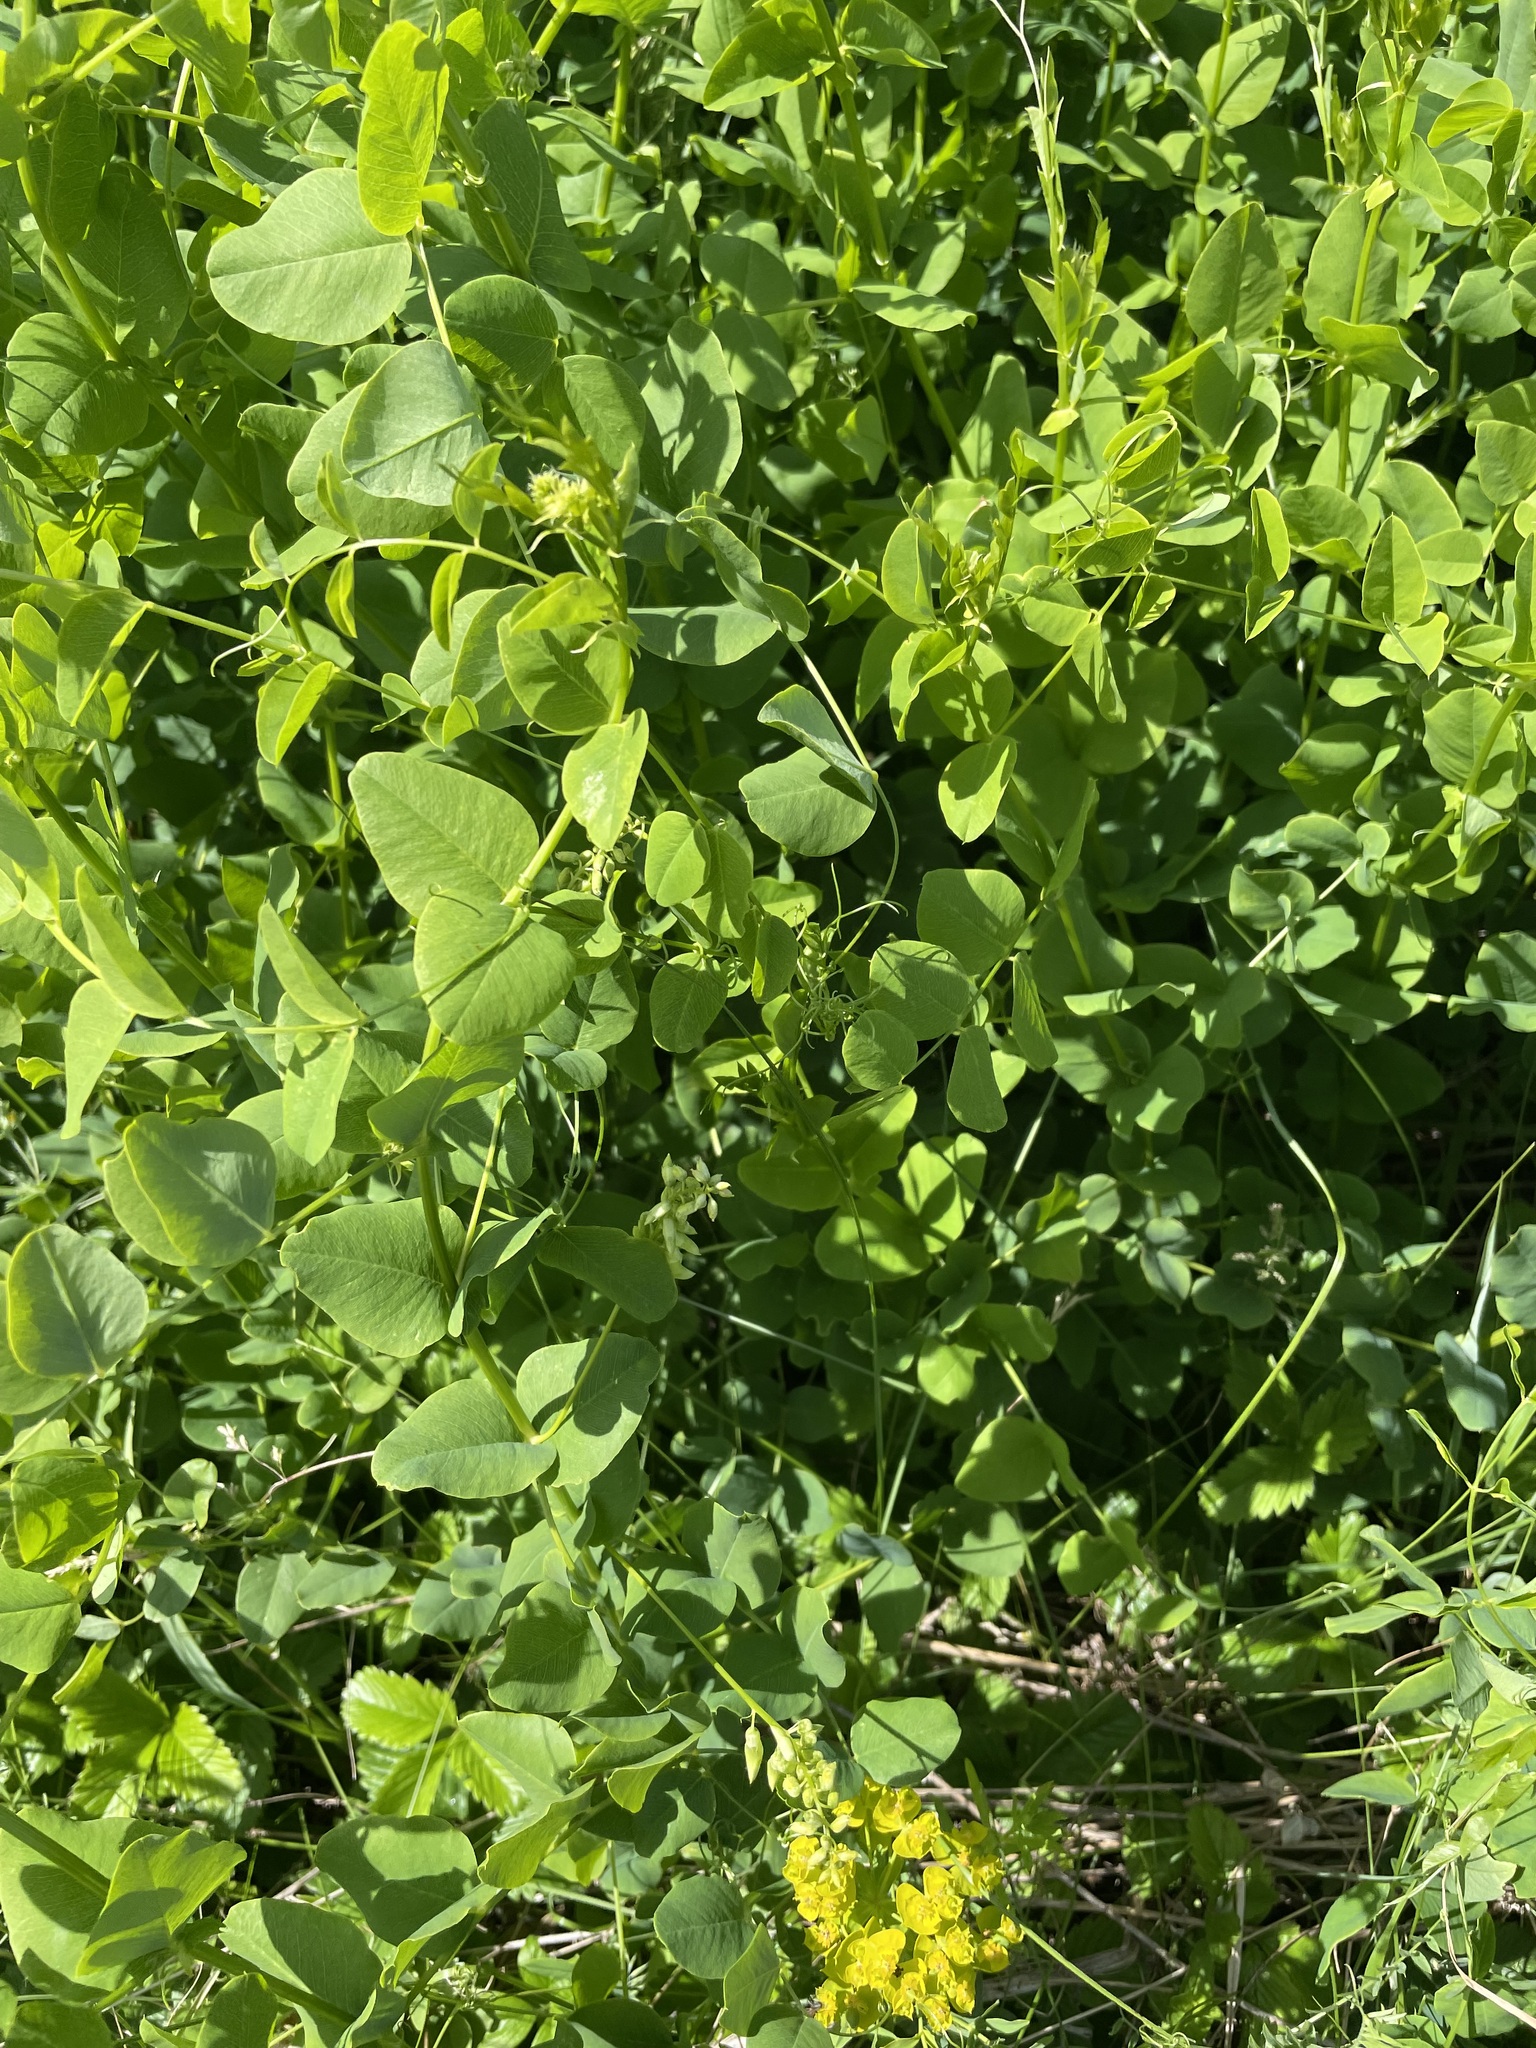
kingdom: Plantae
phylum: Tracheophyta
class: Magnoliopsida
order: Fabales
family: Fabaceae
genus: Vicia
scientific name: Vicia pisiformis
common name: Pale-flower vetch
